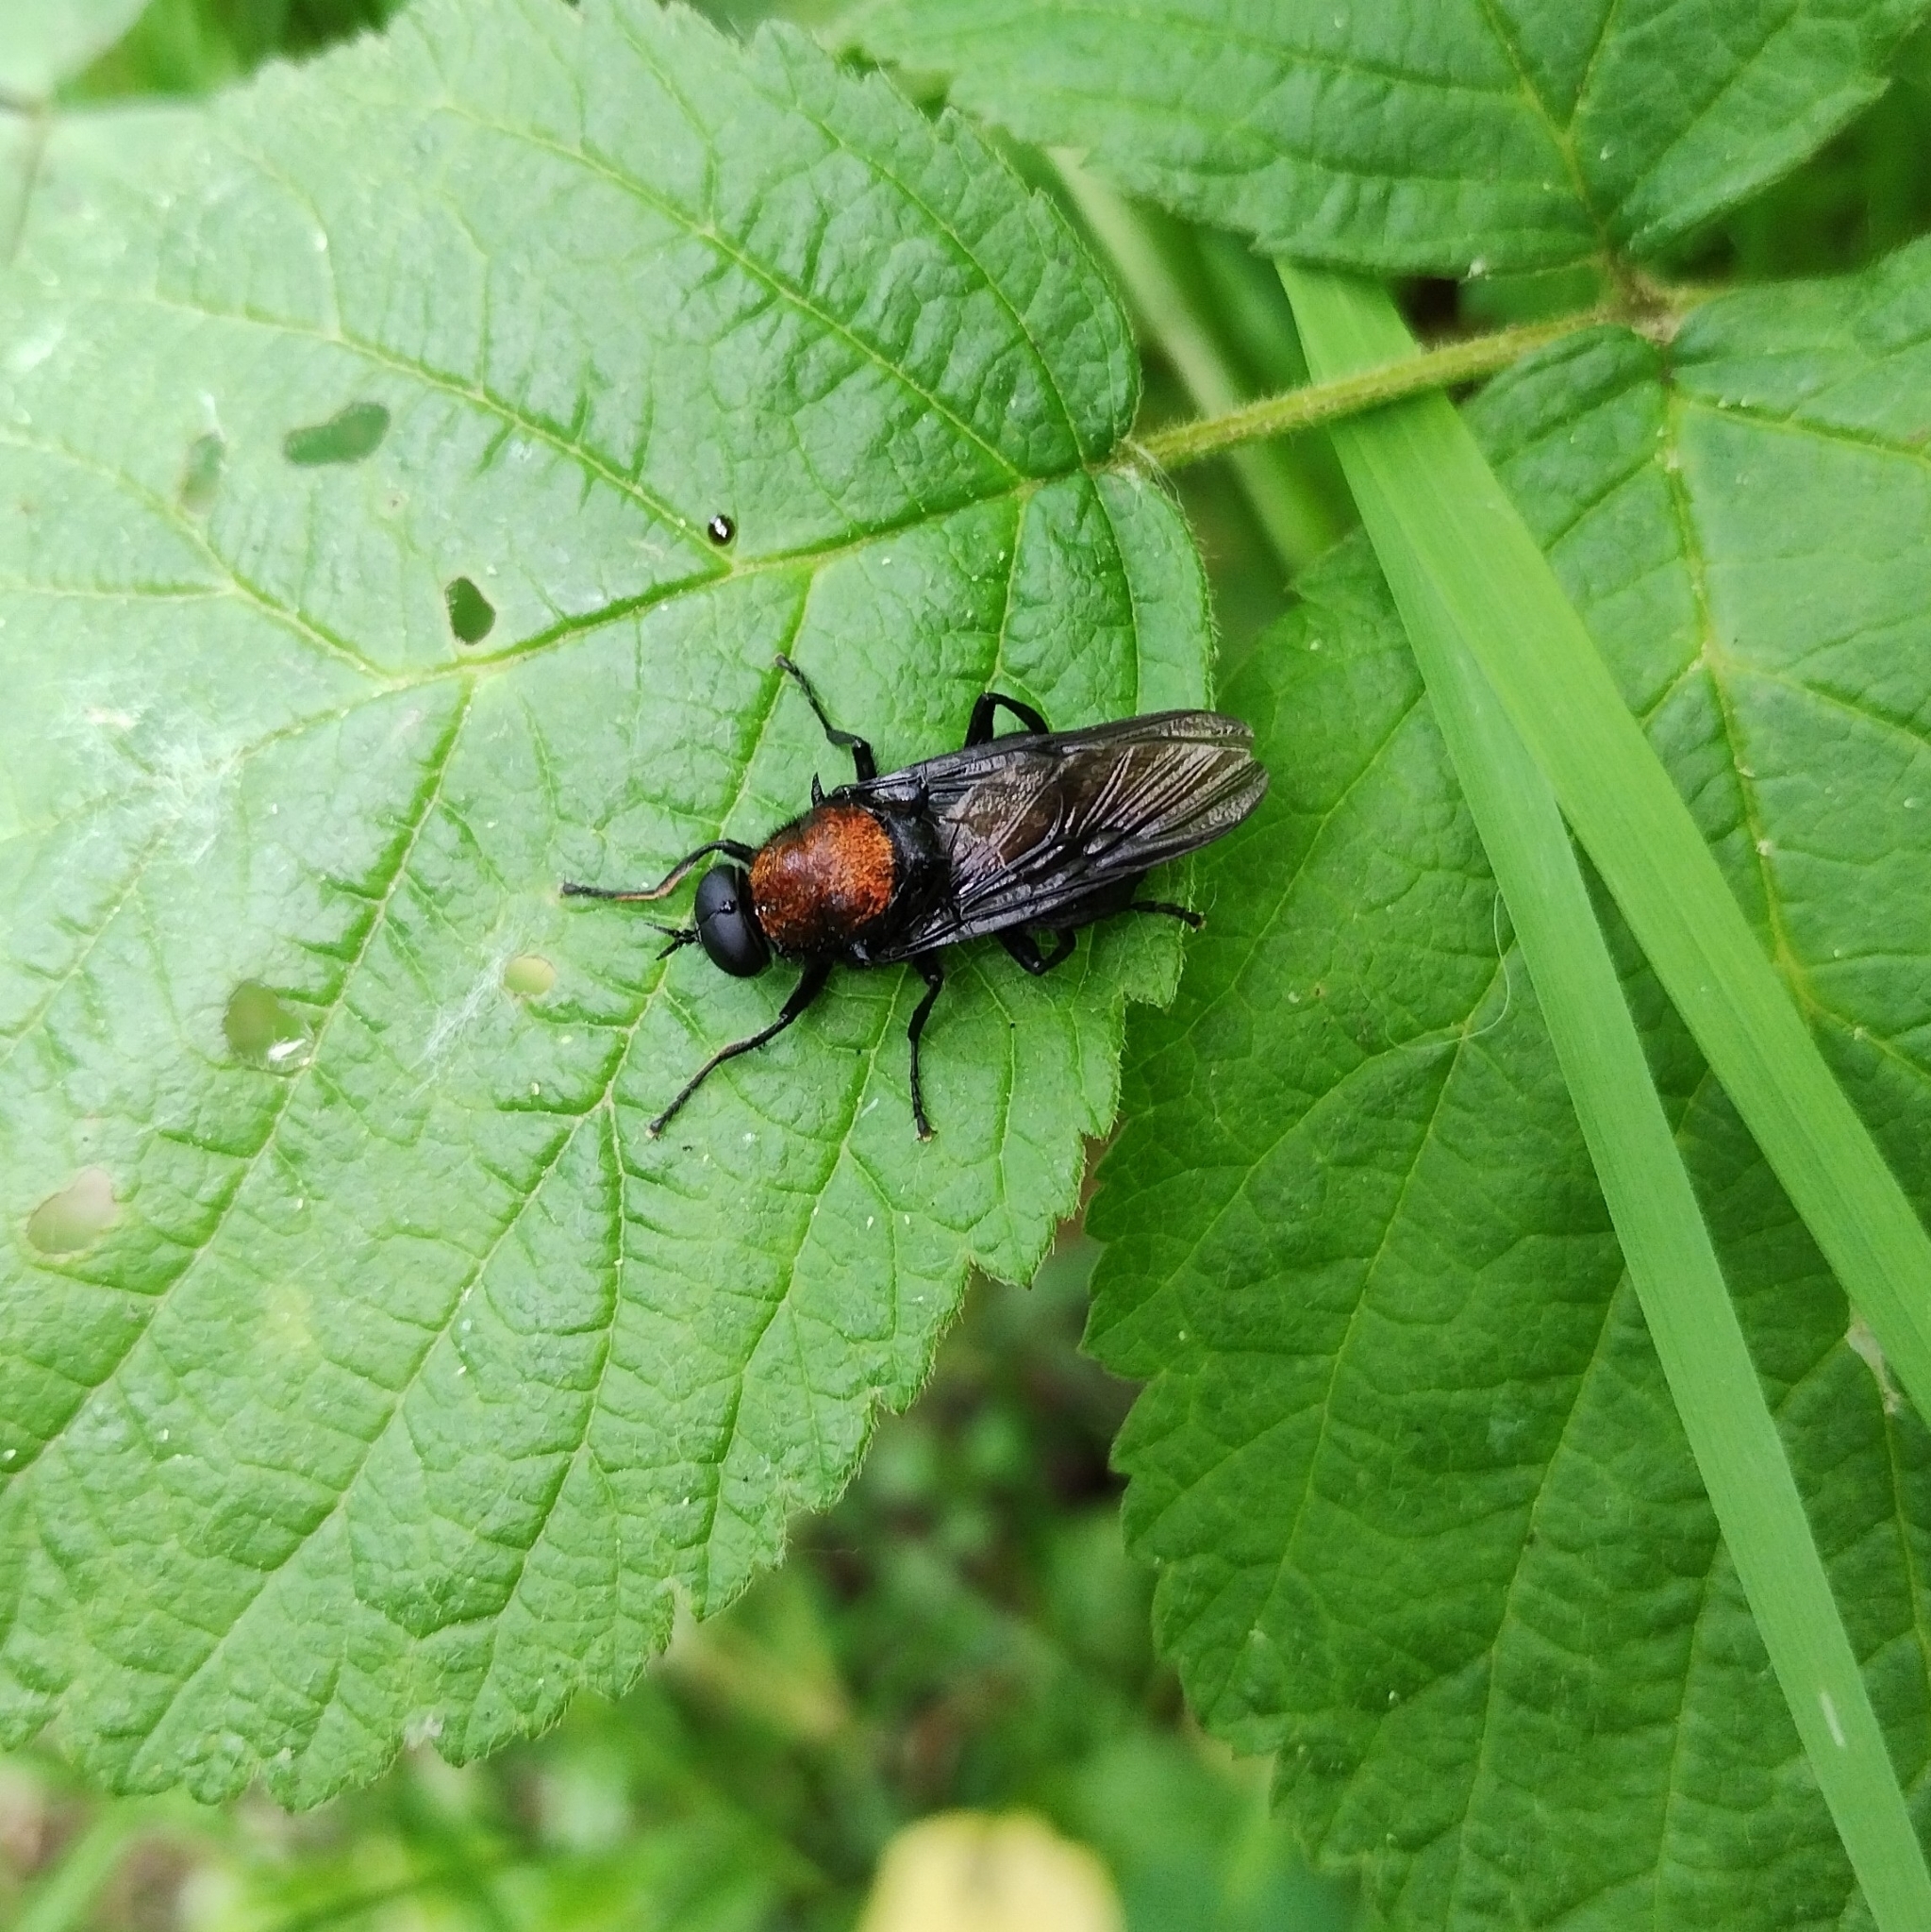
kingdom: Animalia
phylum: Arthropoda
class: Insecta
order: Diptera
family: Stratiomyidae
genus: Clitellaria
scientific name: Clitellaria ephippium
